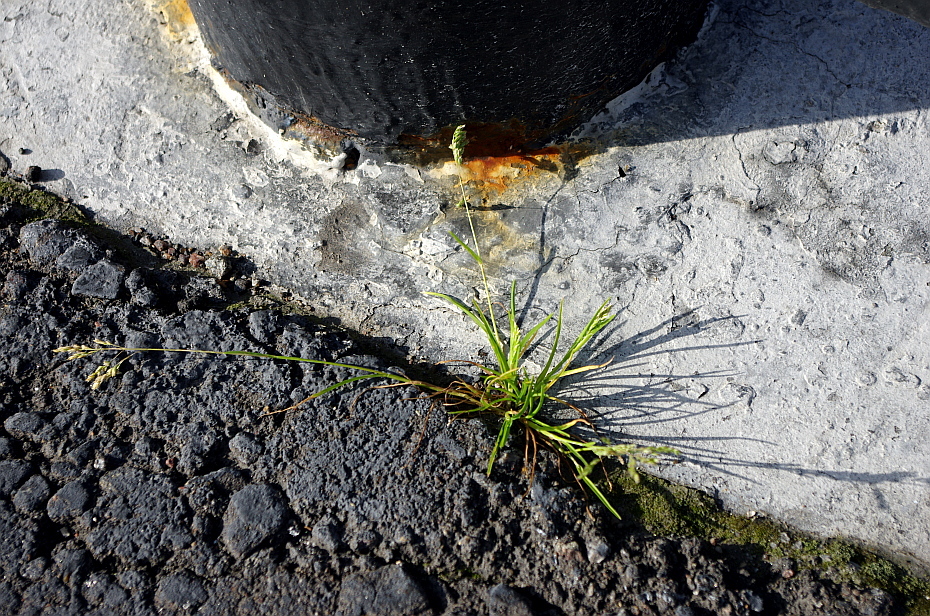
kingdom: Plantae
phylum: Tracheophyta
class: Liliopsida
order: Poales
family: Poaceae
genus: Poa
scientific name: Poa annua
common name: Annual bluegrass
